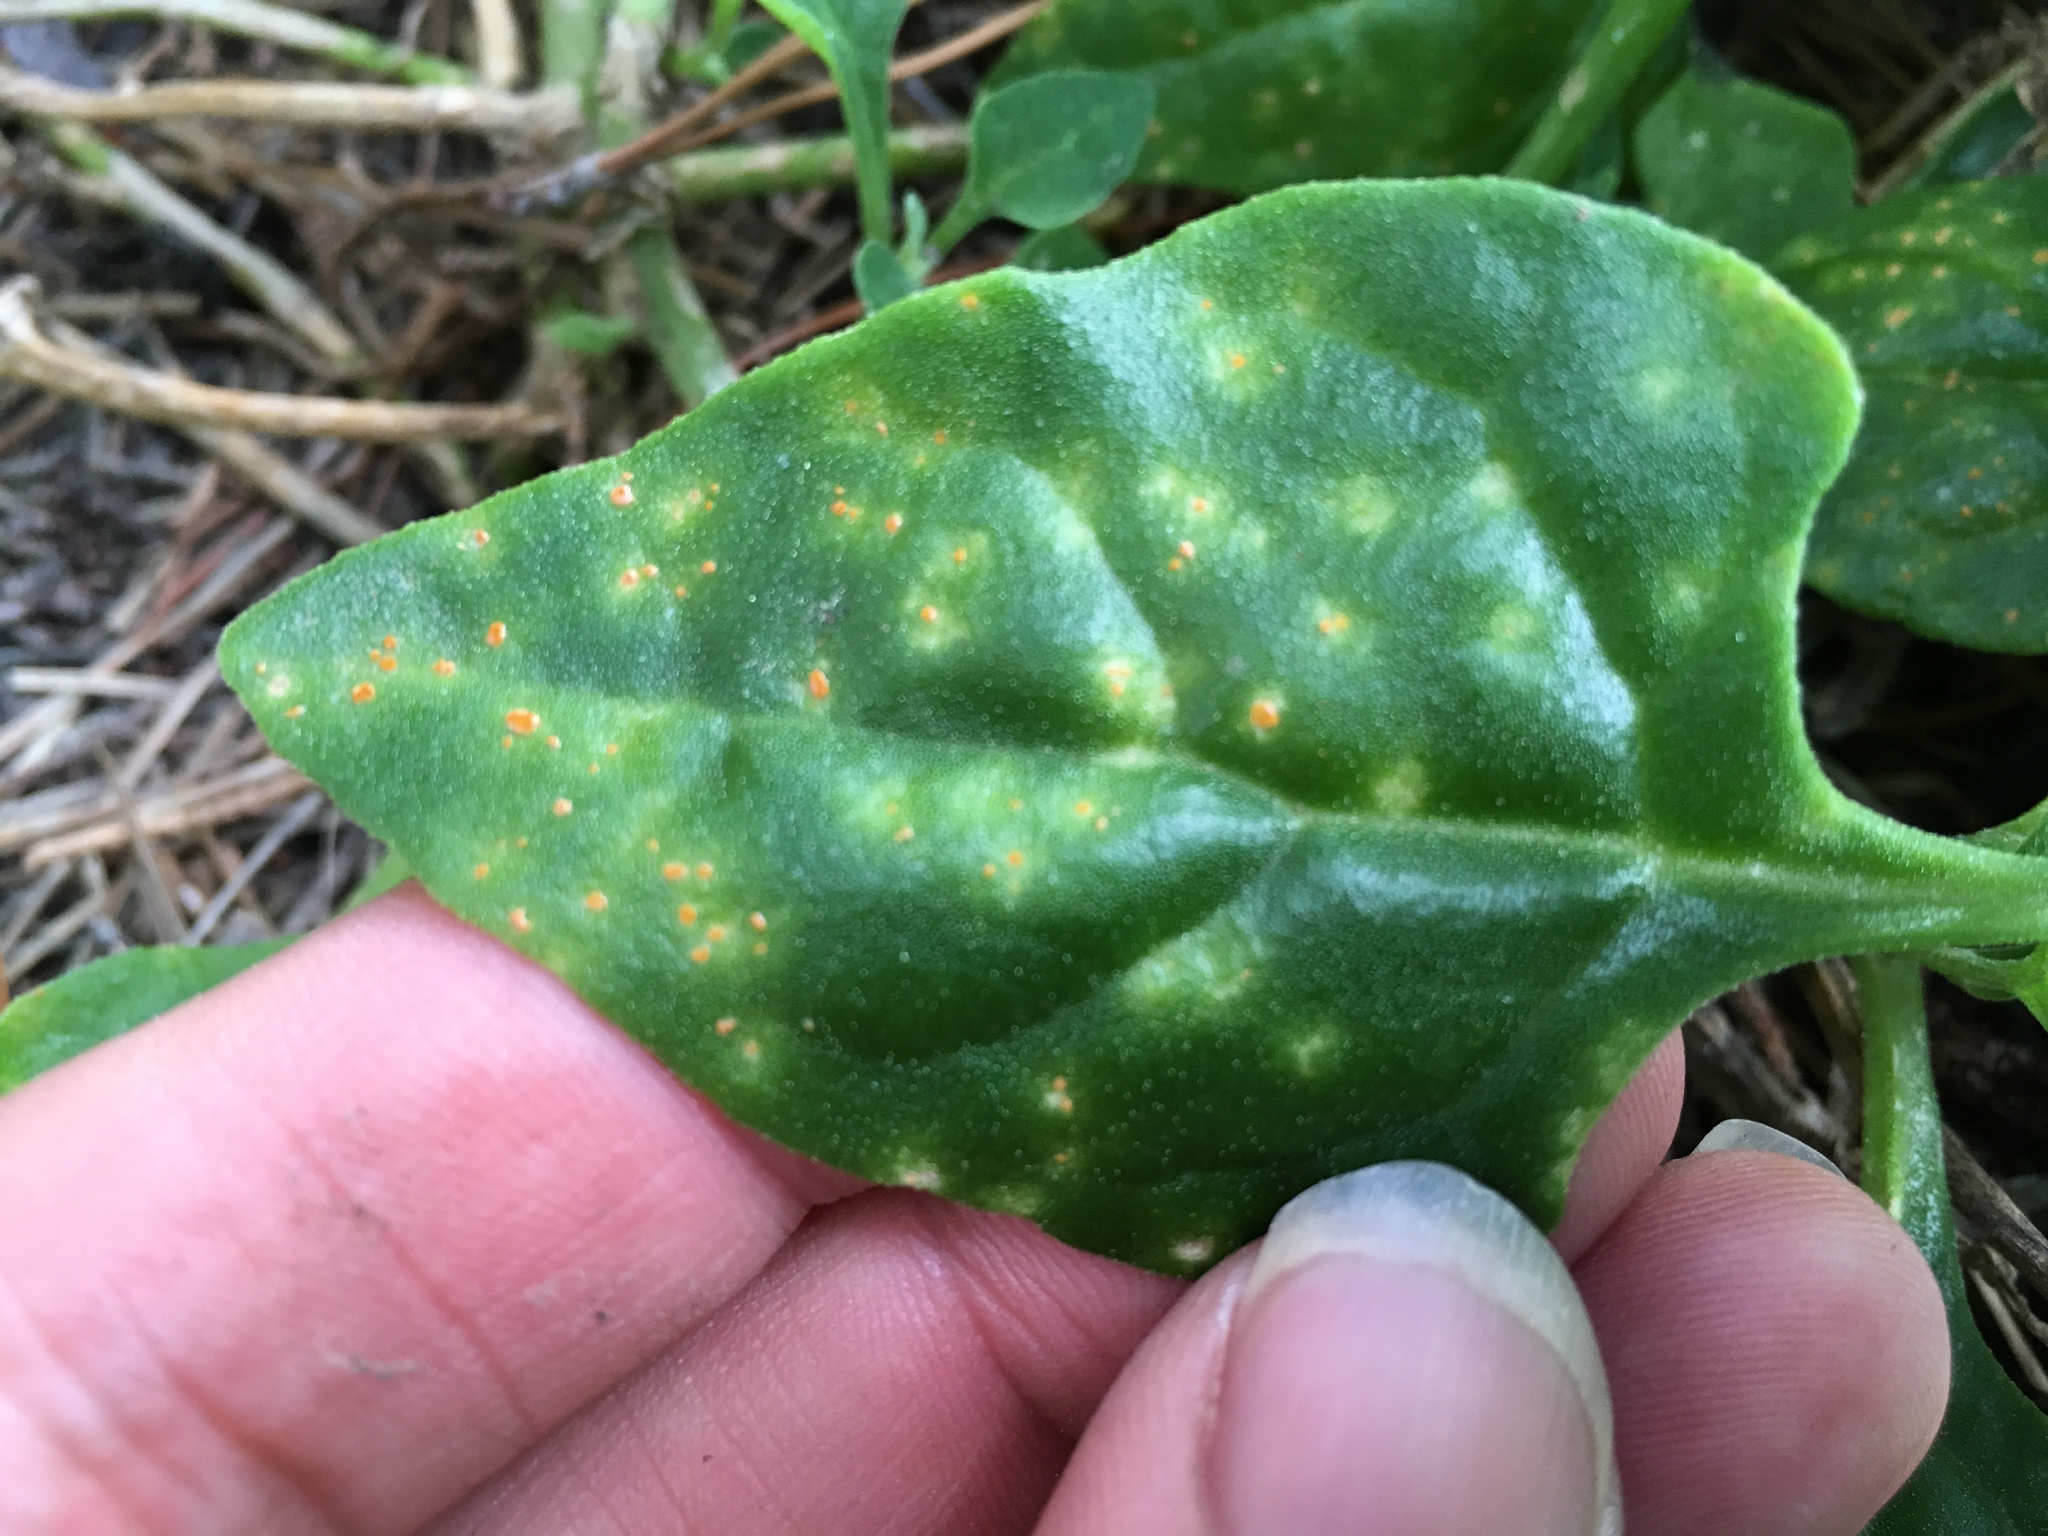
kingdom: Fungi
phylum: Basidiomycota
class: Pucciniomycetes
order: Pucciniales
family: Pucciniaceae
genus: Puccinia
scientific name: Puccinia tetragoniae
